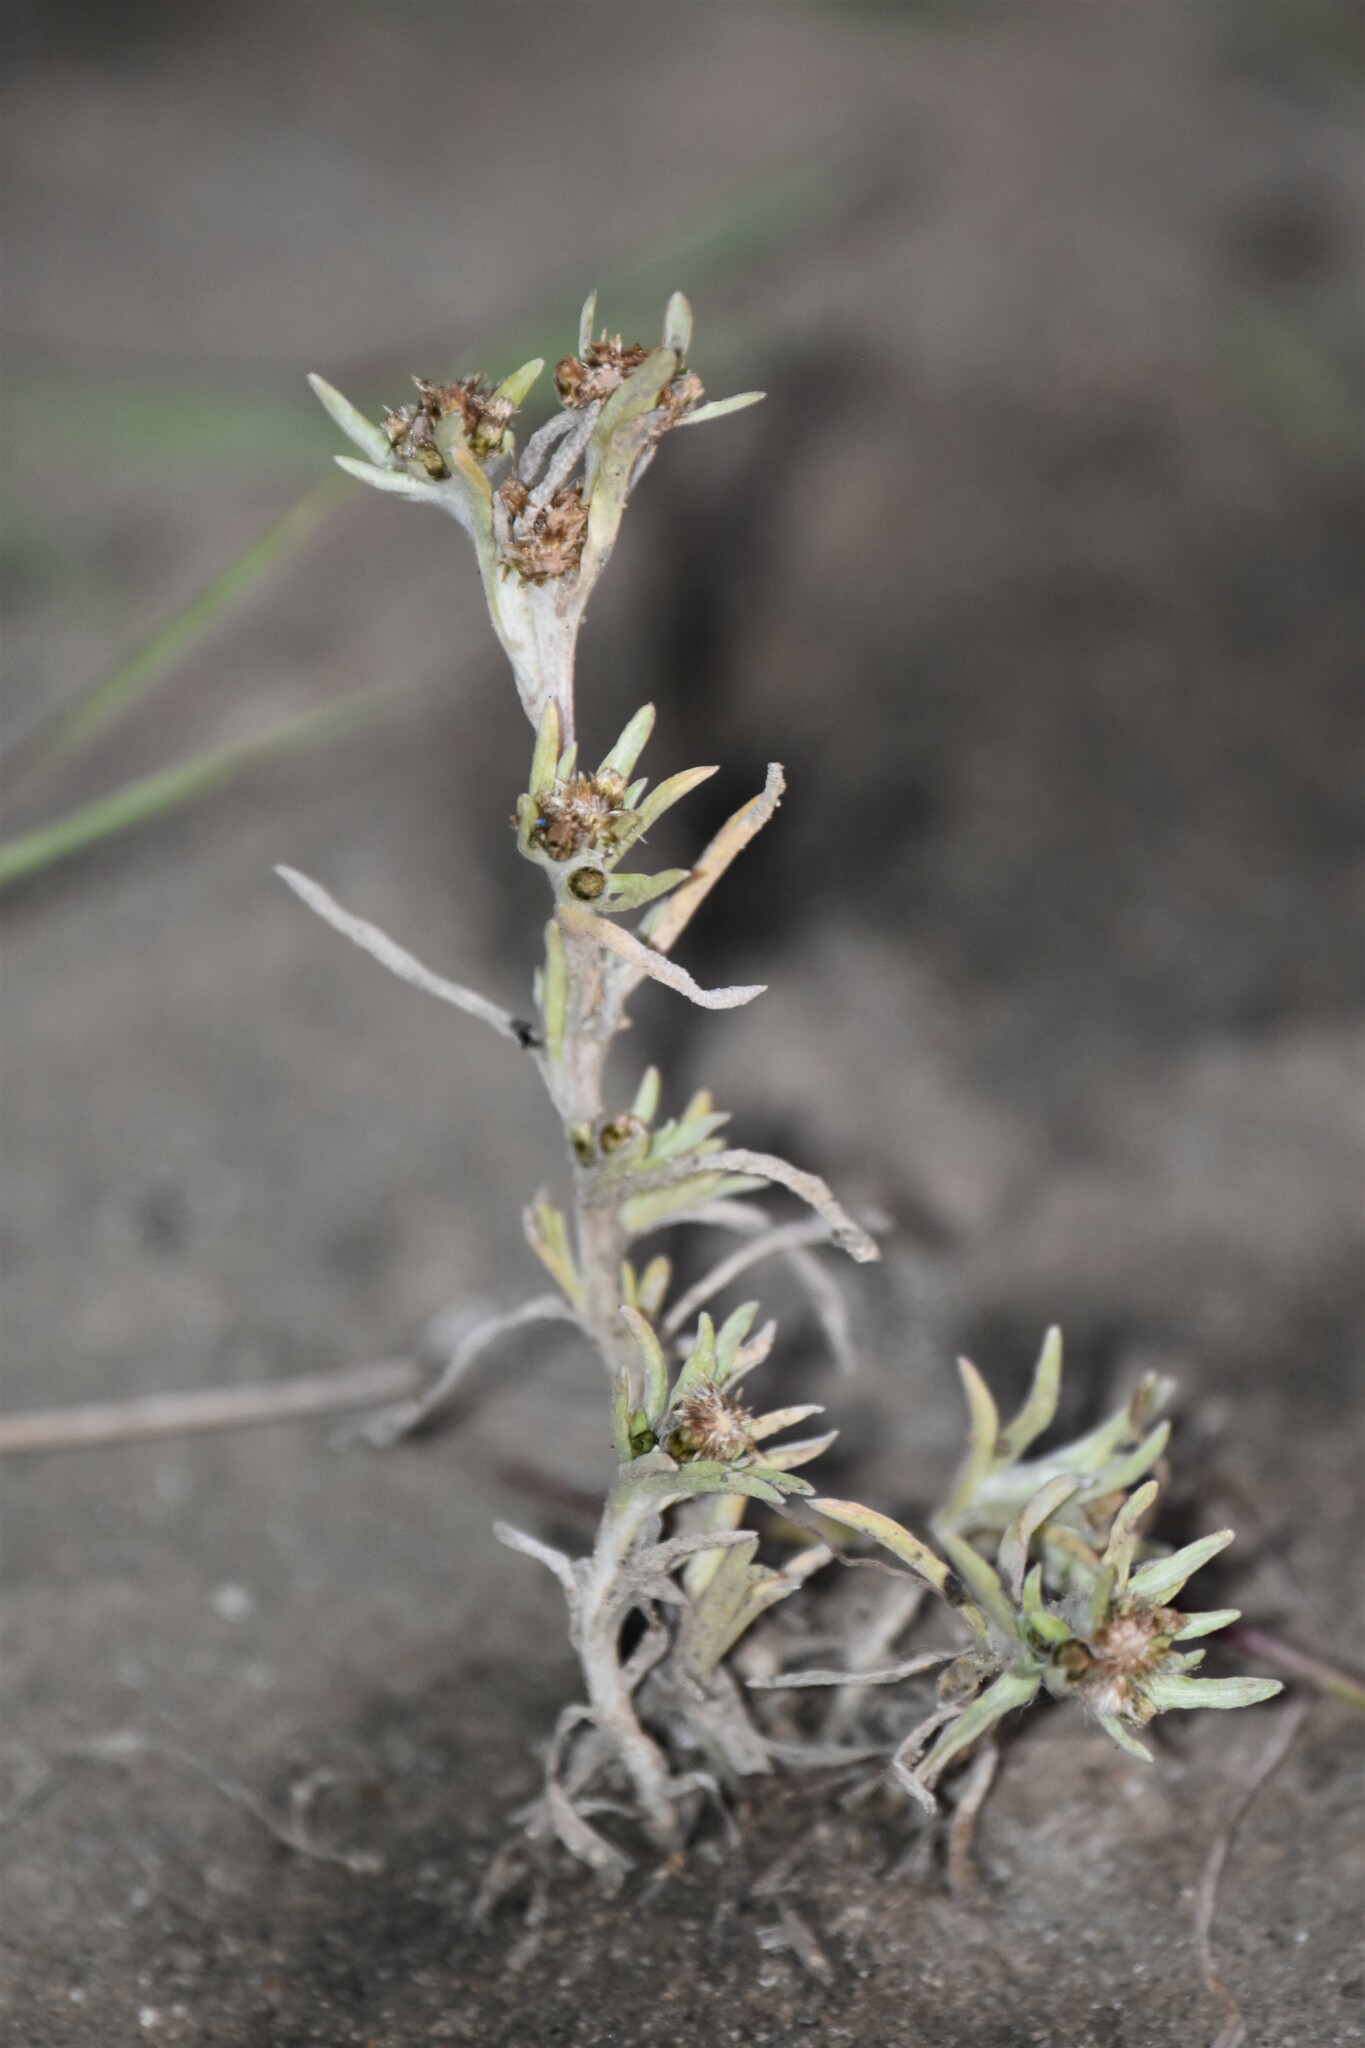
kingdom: Plantae
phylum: Tracheophyta
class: Magnoliopsida
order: Asterales
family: Asteraceae
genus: Gnaphalium
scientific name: Gnaphalium uliginosum
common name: Marsh cudweed
